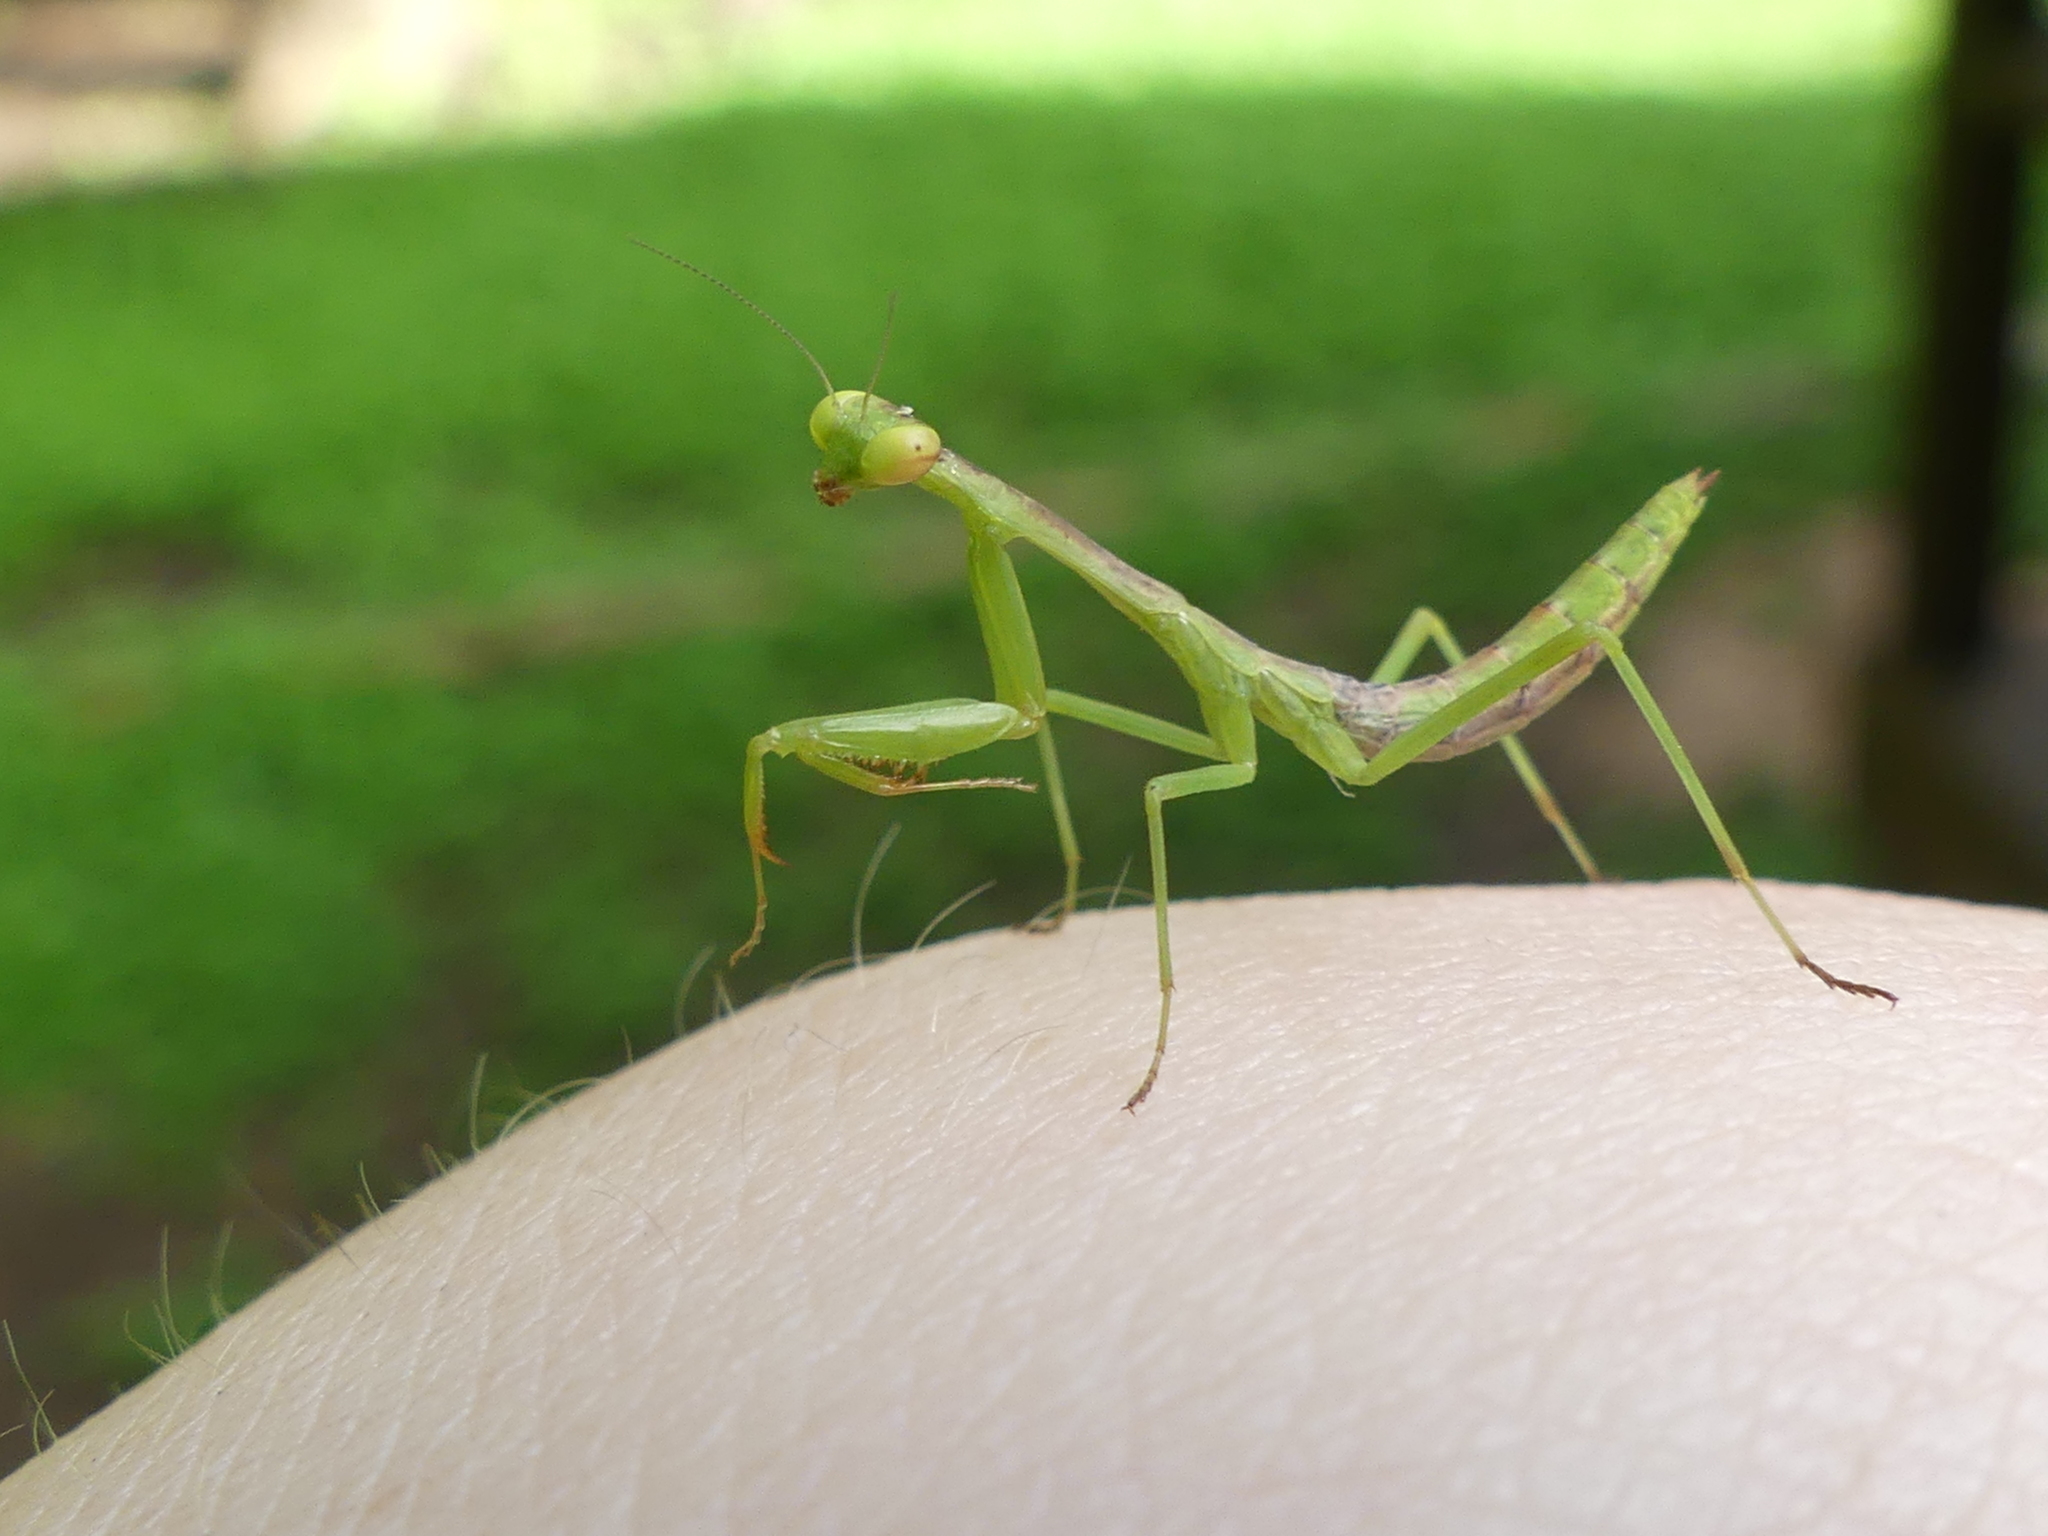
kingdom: Animalia
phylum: Arthropoda
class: Insecta
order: Mantodea
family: Mantidae
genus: Stagmomantis
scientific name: Stagmomantis carolina
